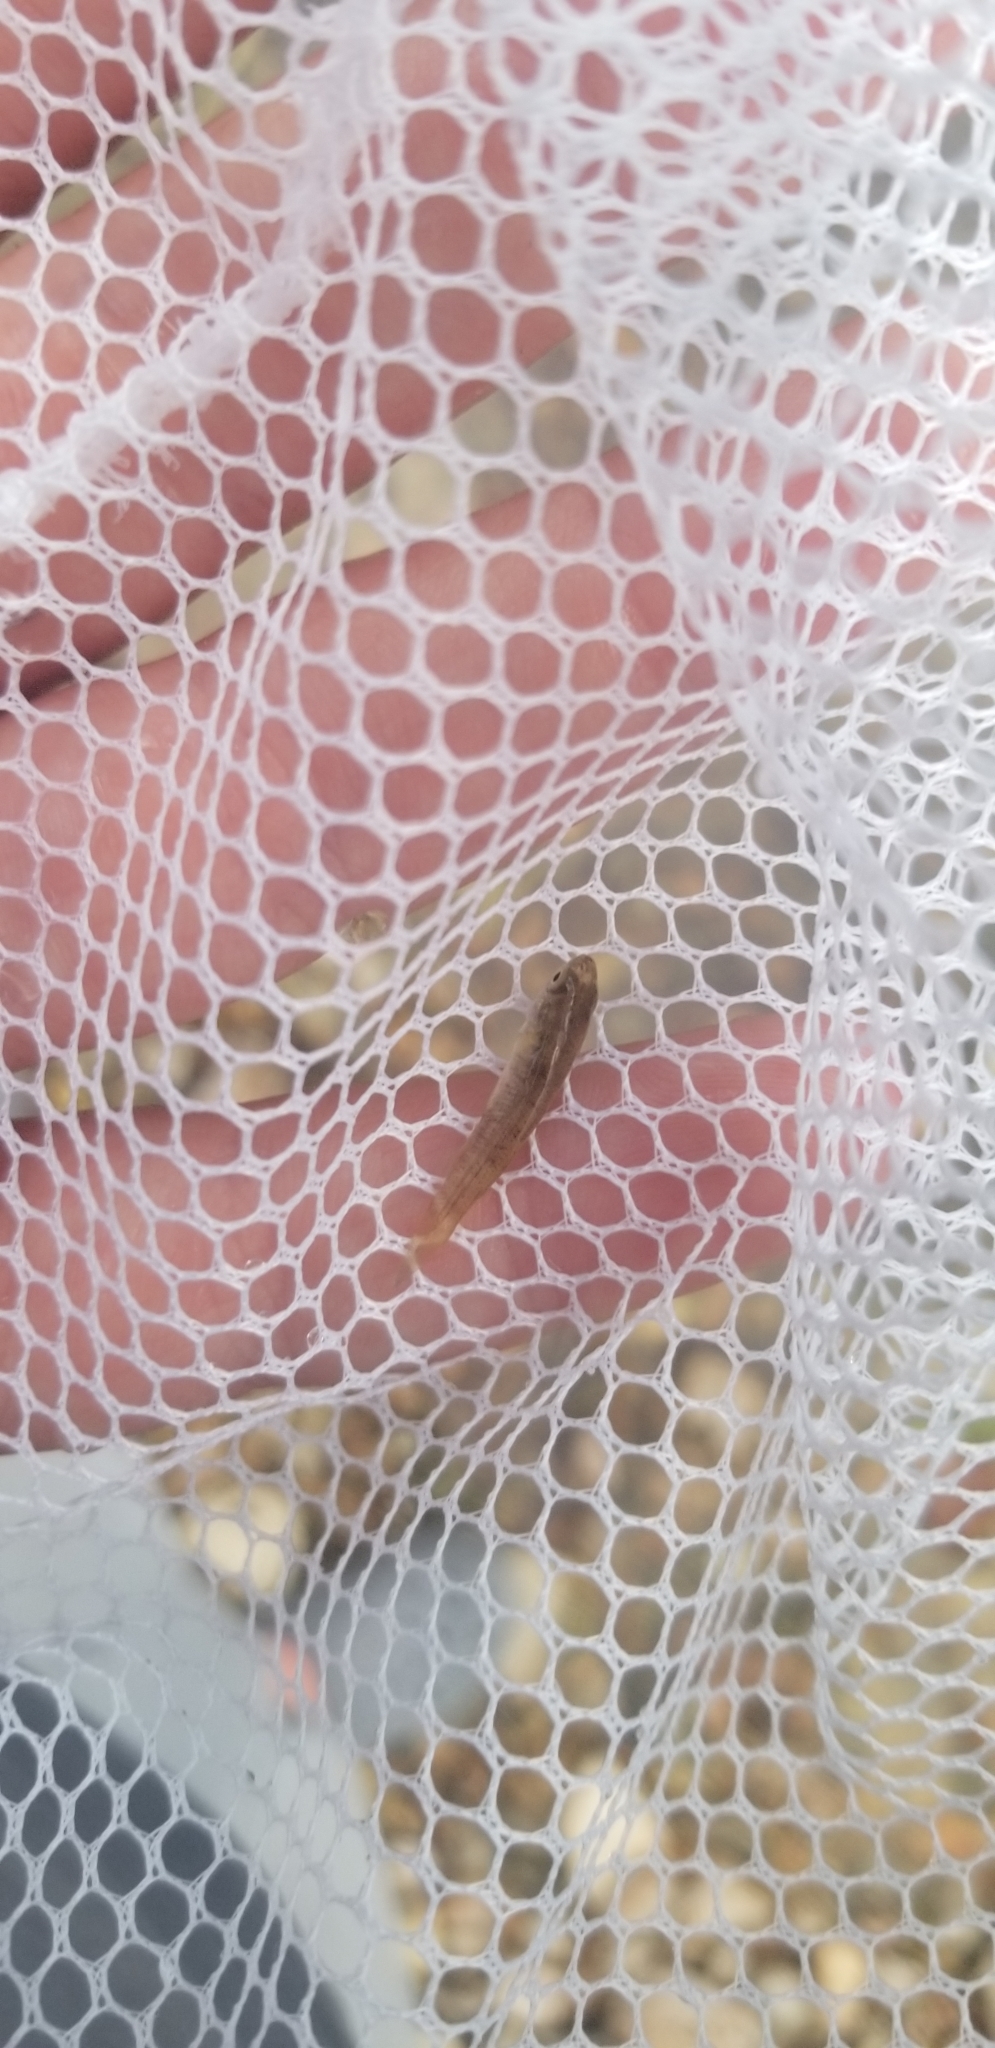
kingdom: Animalia
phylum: Chordata
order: Cyprinodontiformes
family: Fundulidae
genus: Fundulus
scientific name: Fundulus catenatus
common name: Northern studfish
